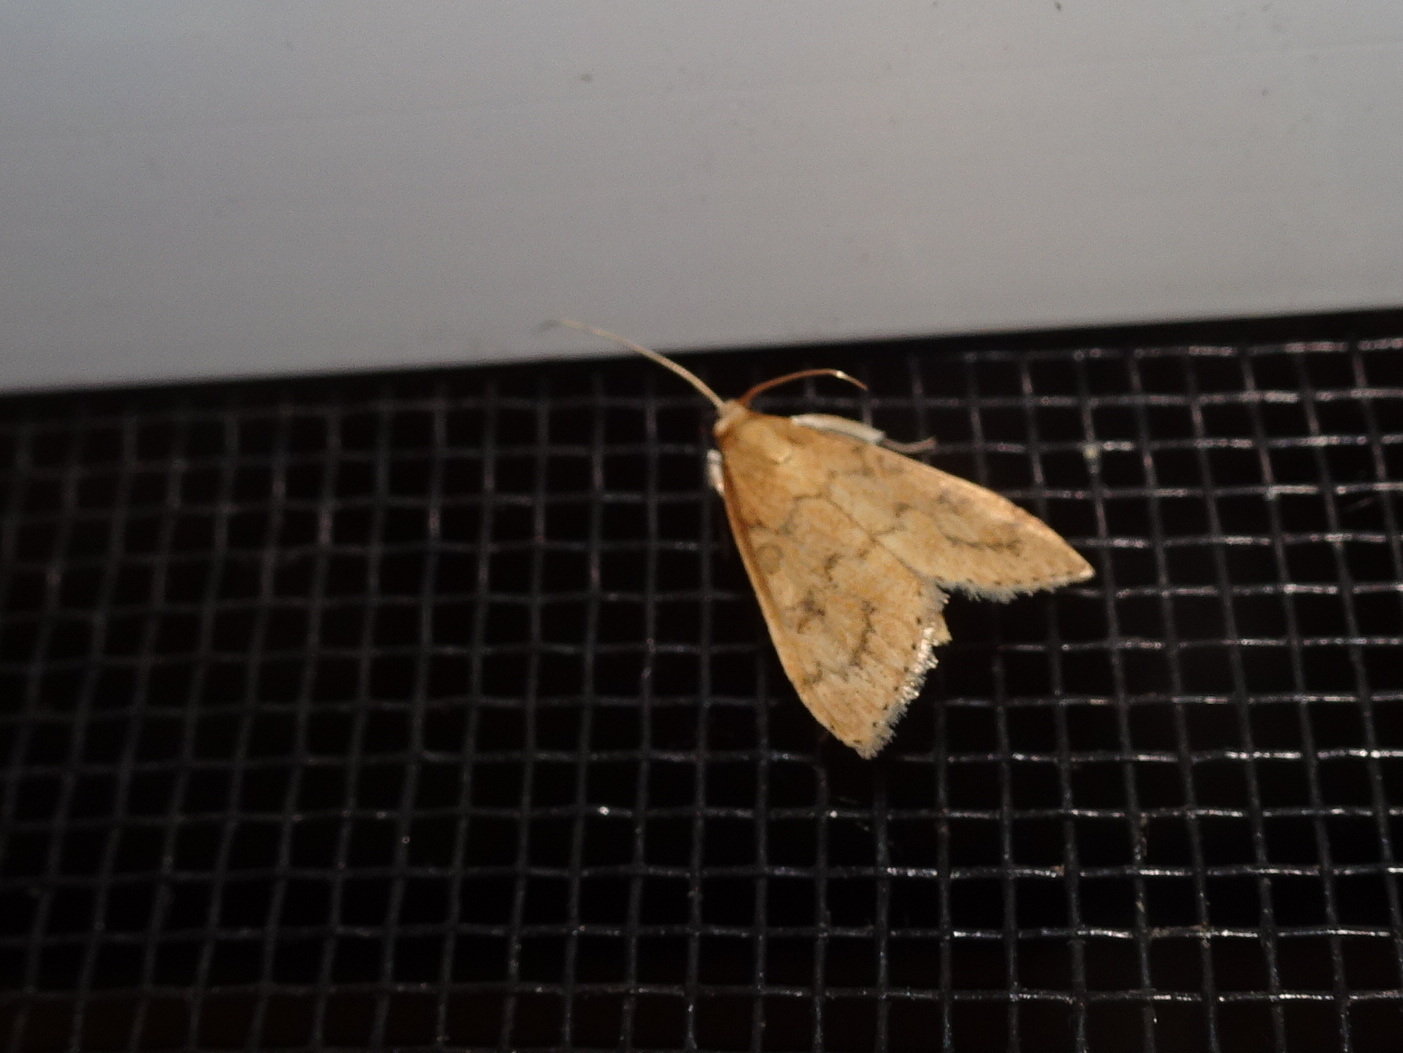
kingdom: Animalia
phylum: Arthropoda
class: Insecta
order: Lepidoptera
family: Crambidae
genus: Udea
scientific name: Udea rubigalis
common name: Celery leaftier moth
